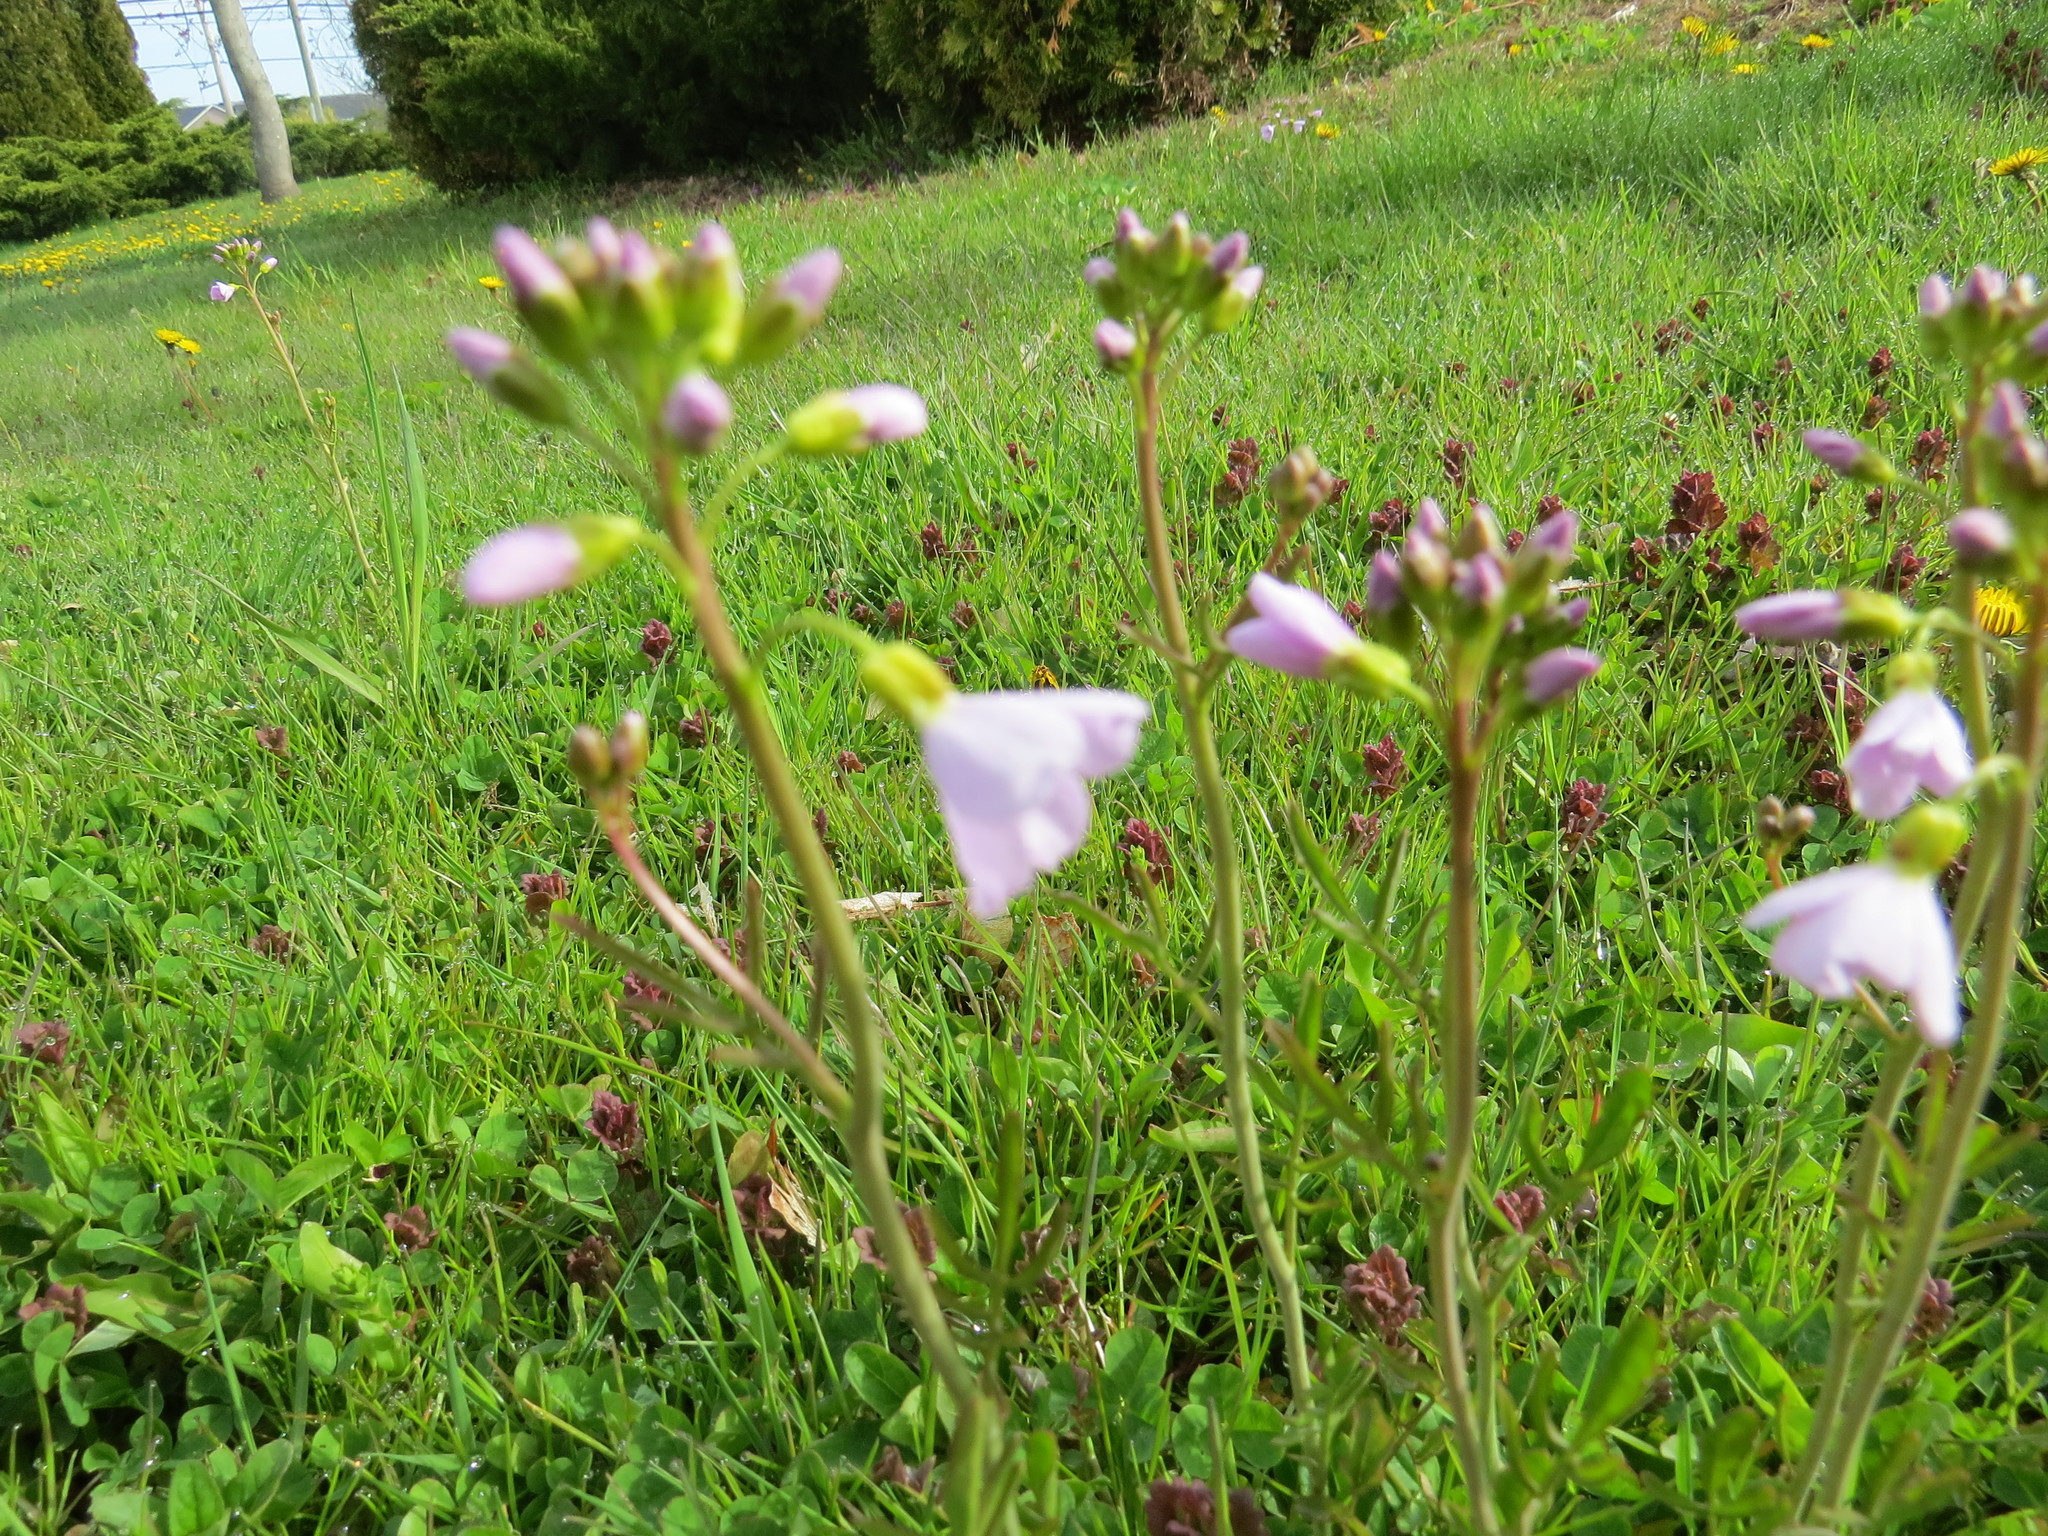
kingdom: Plantae
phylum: Tracheophyta
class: Magnoliopsida
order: Brassicales
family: Brassicaceae
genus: Cardamine
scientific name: Cardamine pratensis
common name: Cuckoo flower
